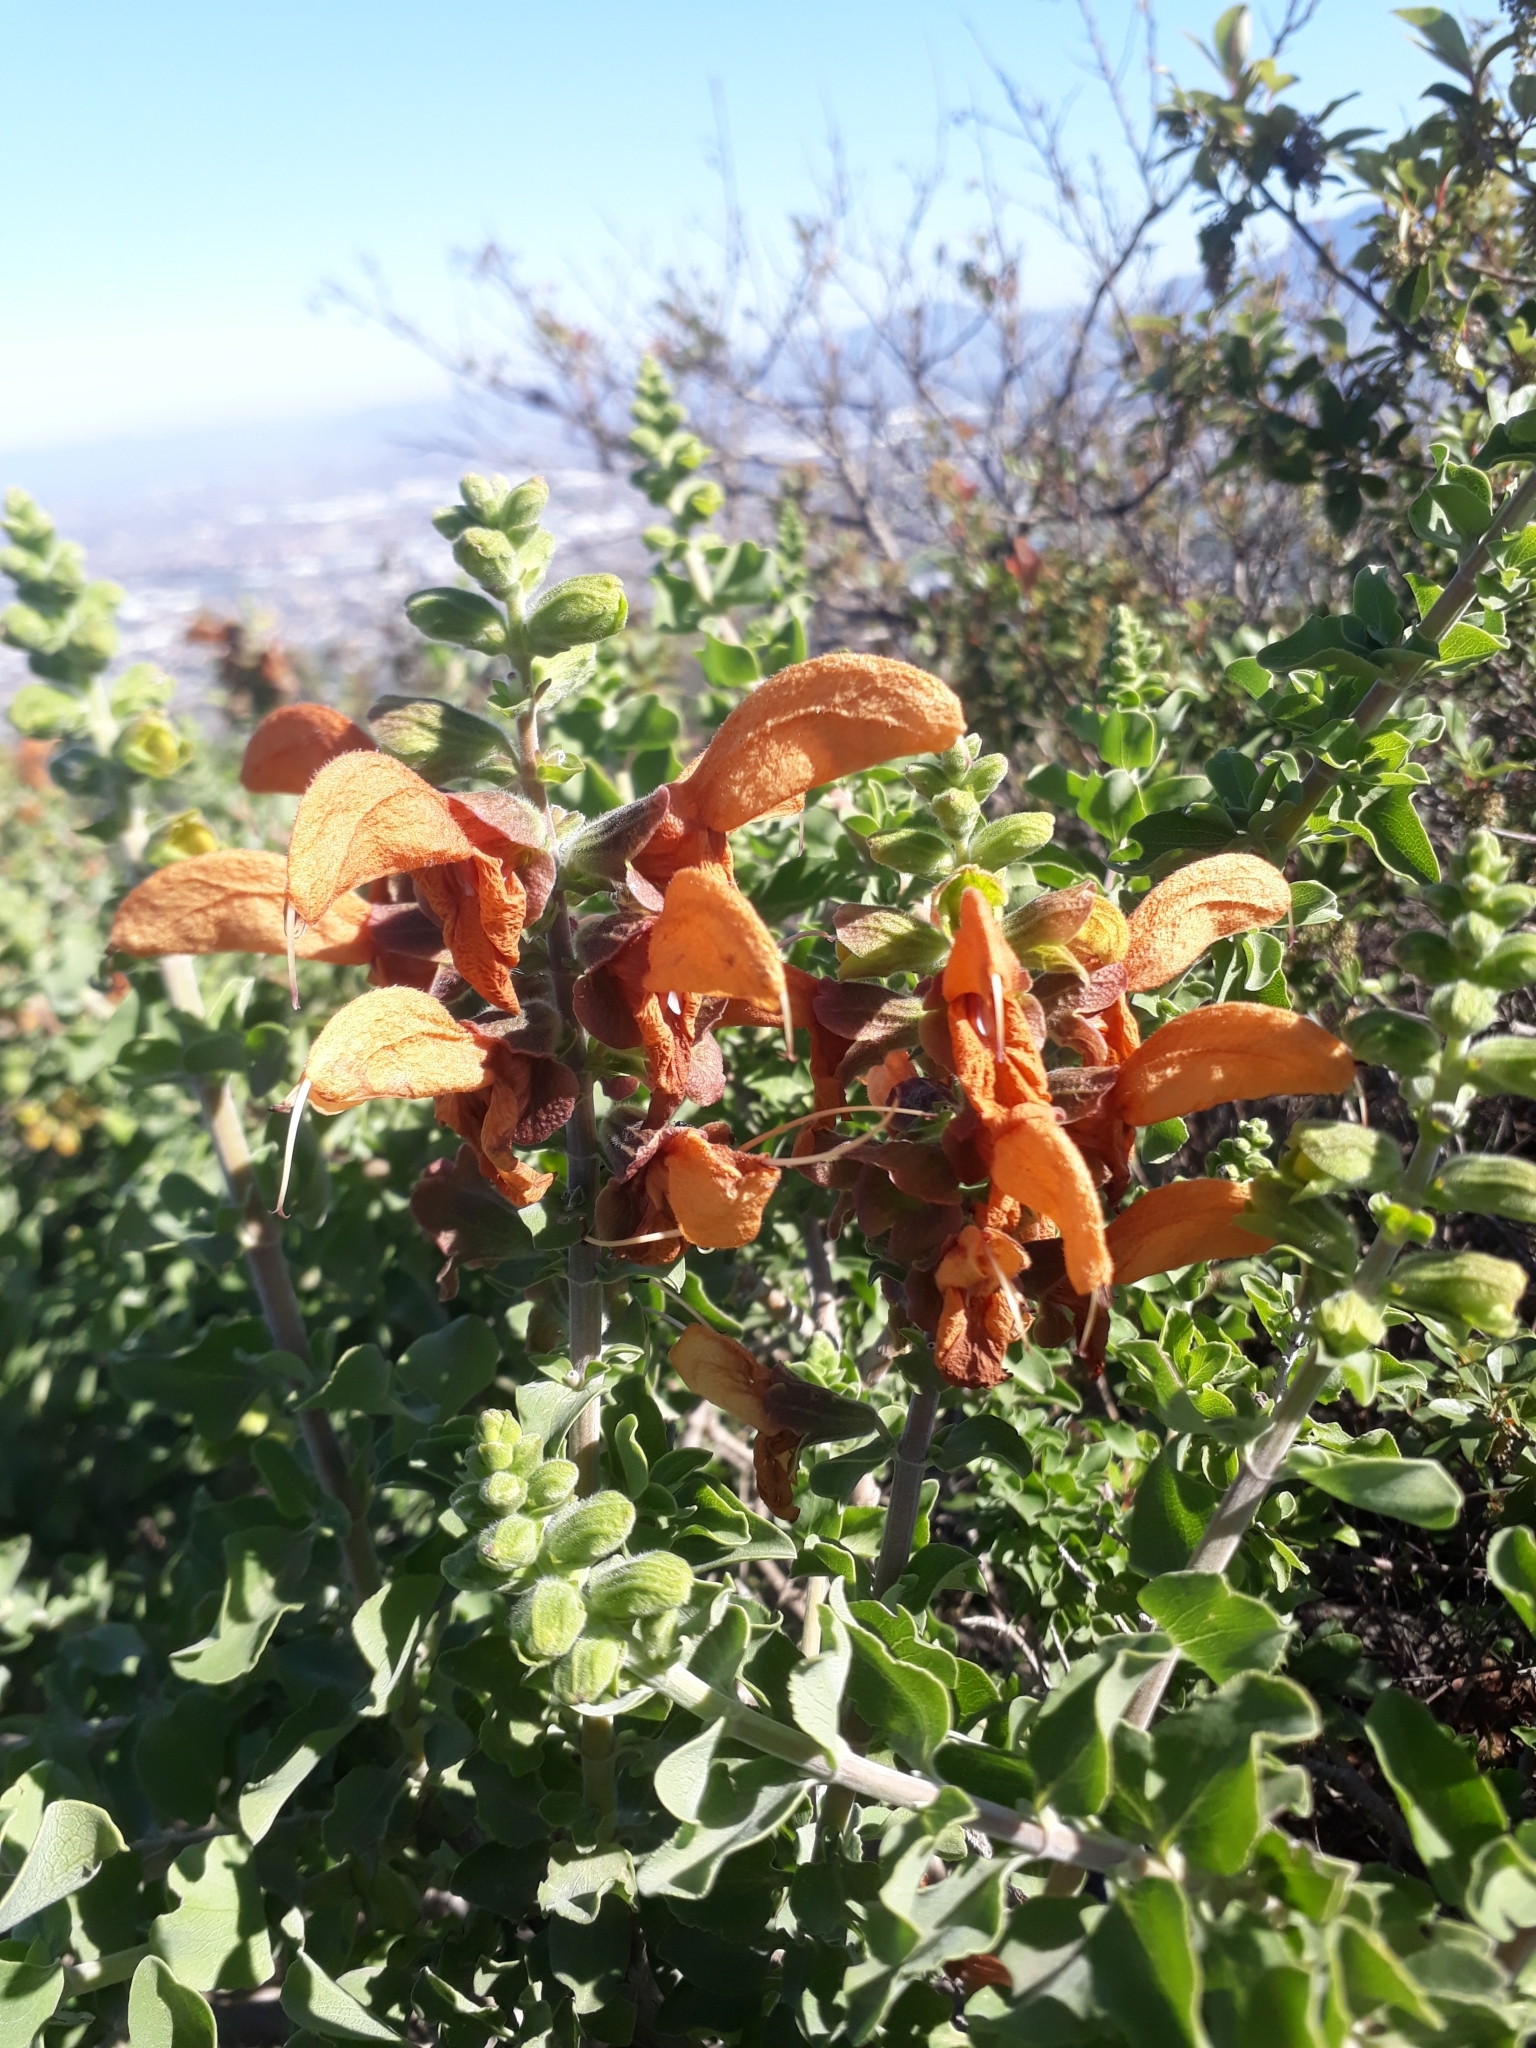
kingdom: Plantae
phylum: Tracheophyta
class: Magnoliopsida
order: Lamiales
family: Lamiaceae
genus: Salvia
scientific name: Salvia aurea
